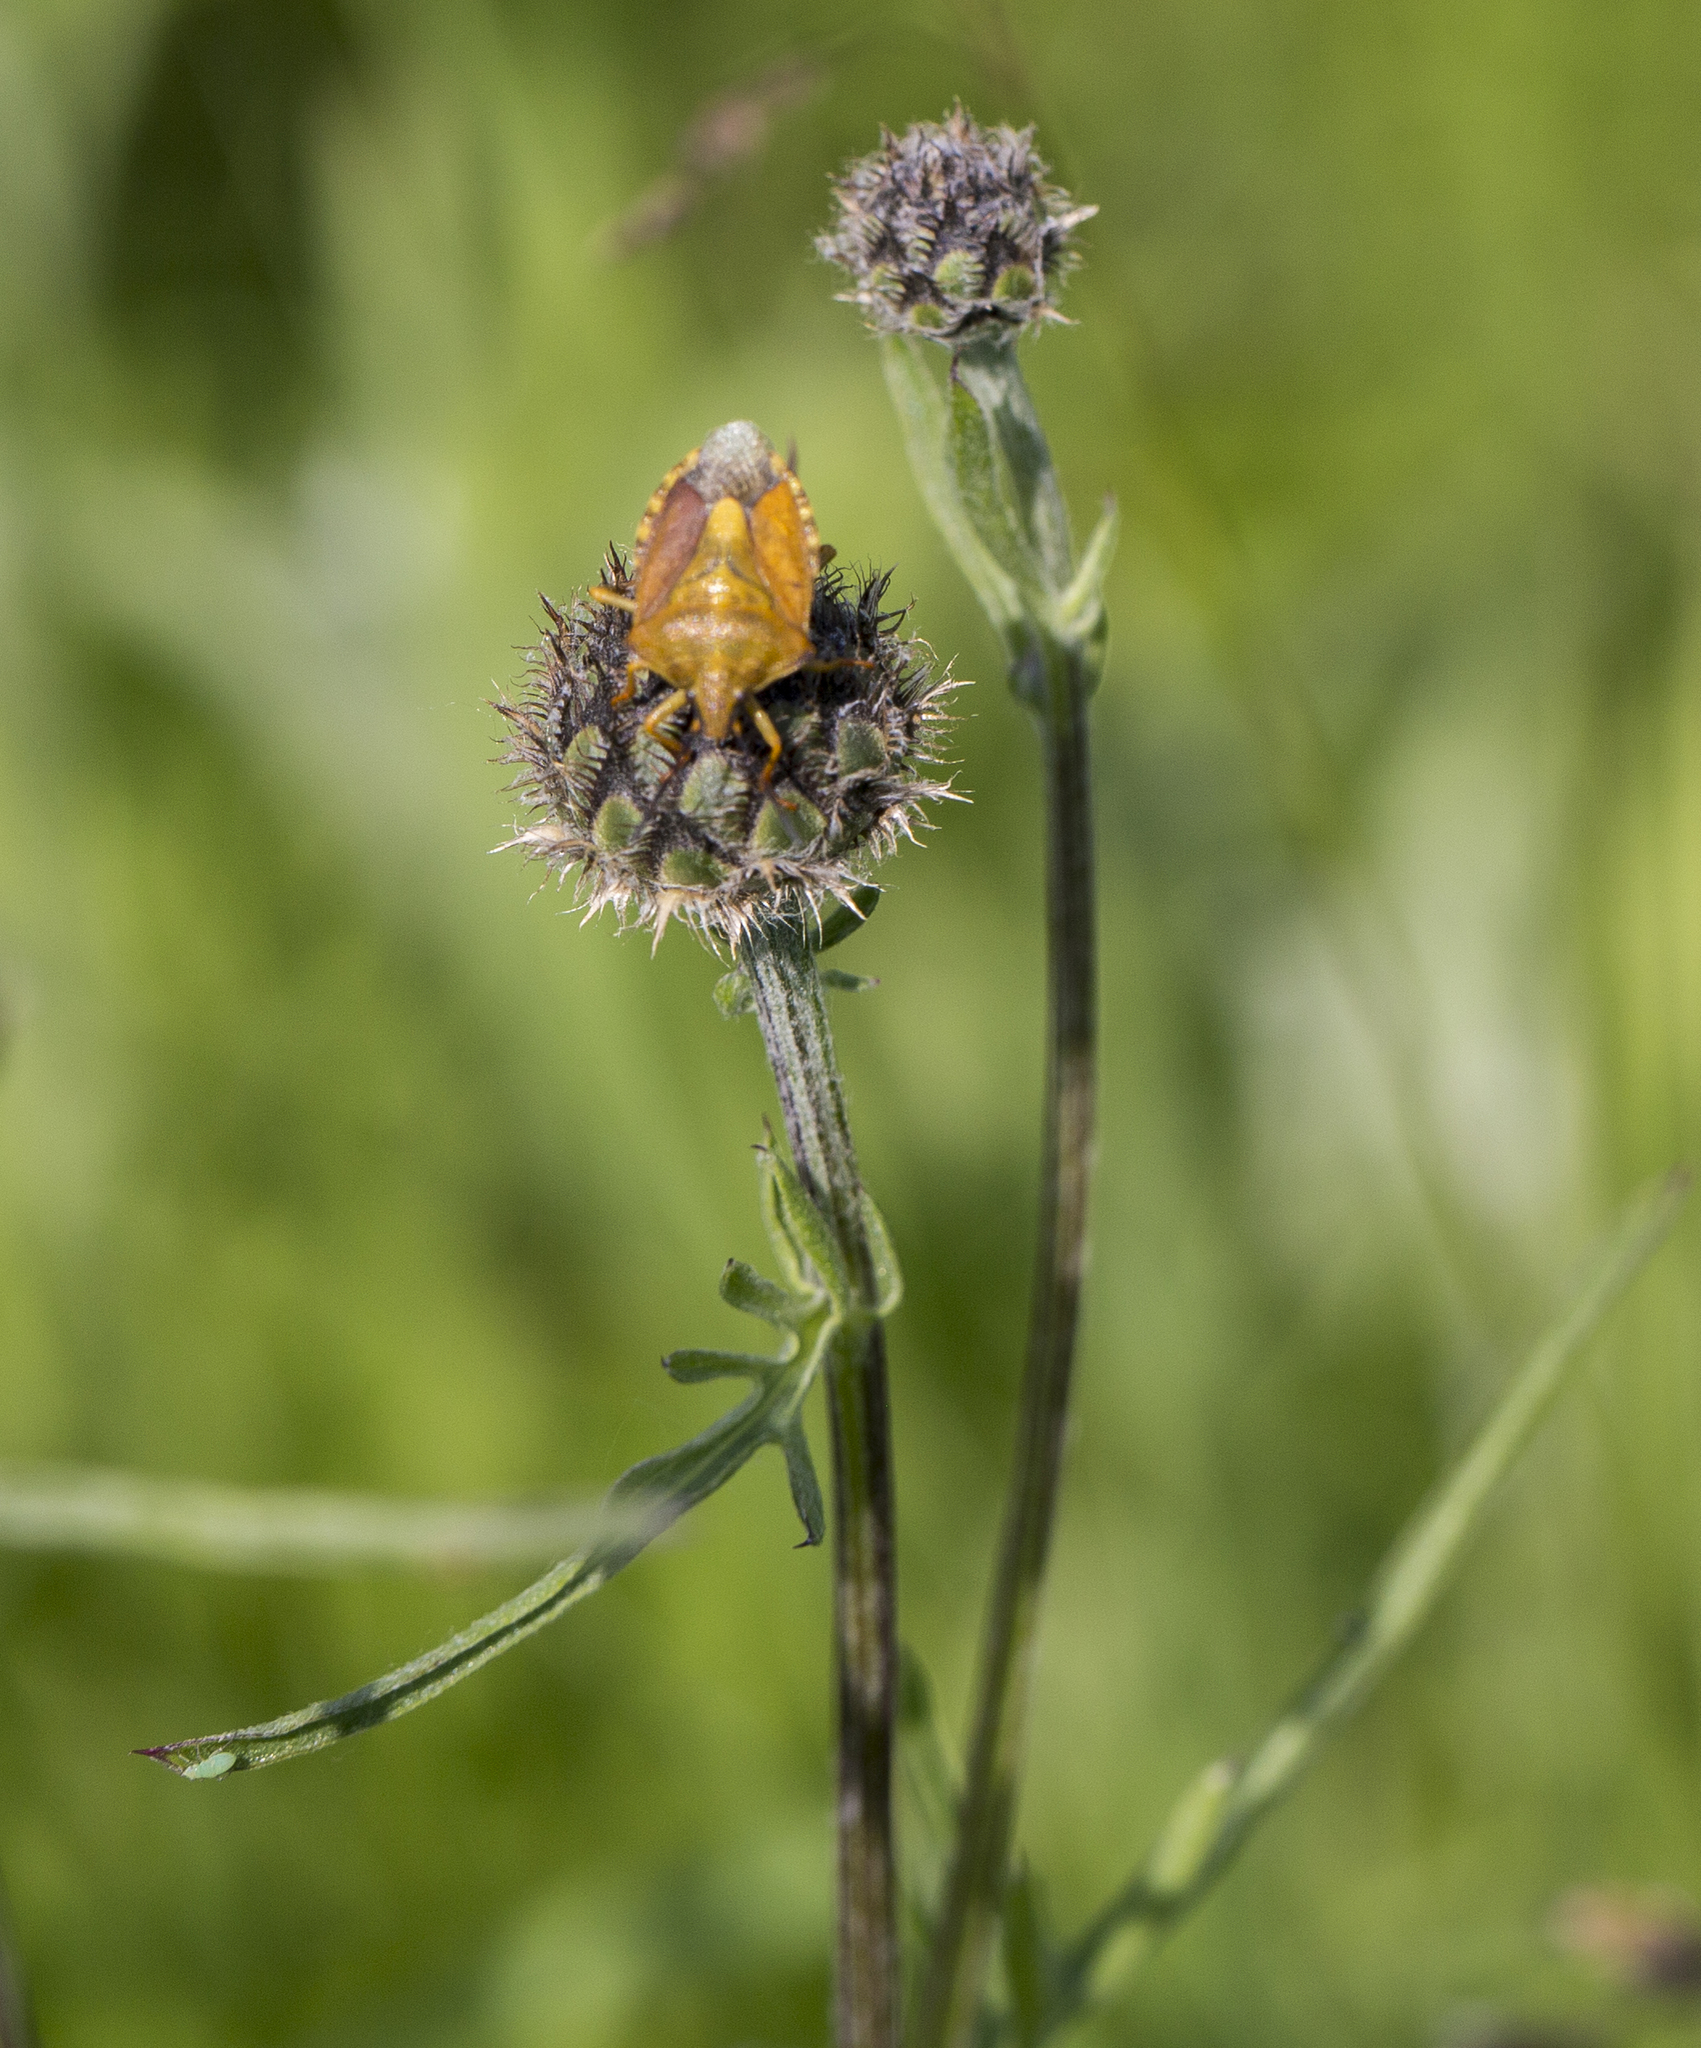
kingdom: Animalia
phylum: Arthropoda
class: Insecta
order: Hemiptera
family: Pentatomidae
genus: Carpocoris
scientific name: Carpocoris purpureipennis
